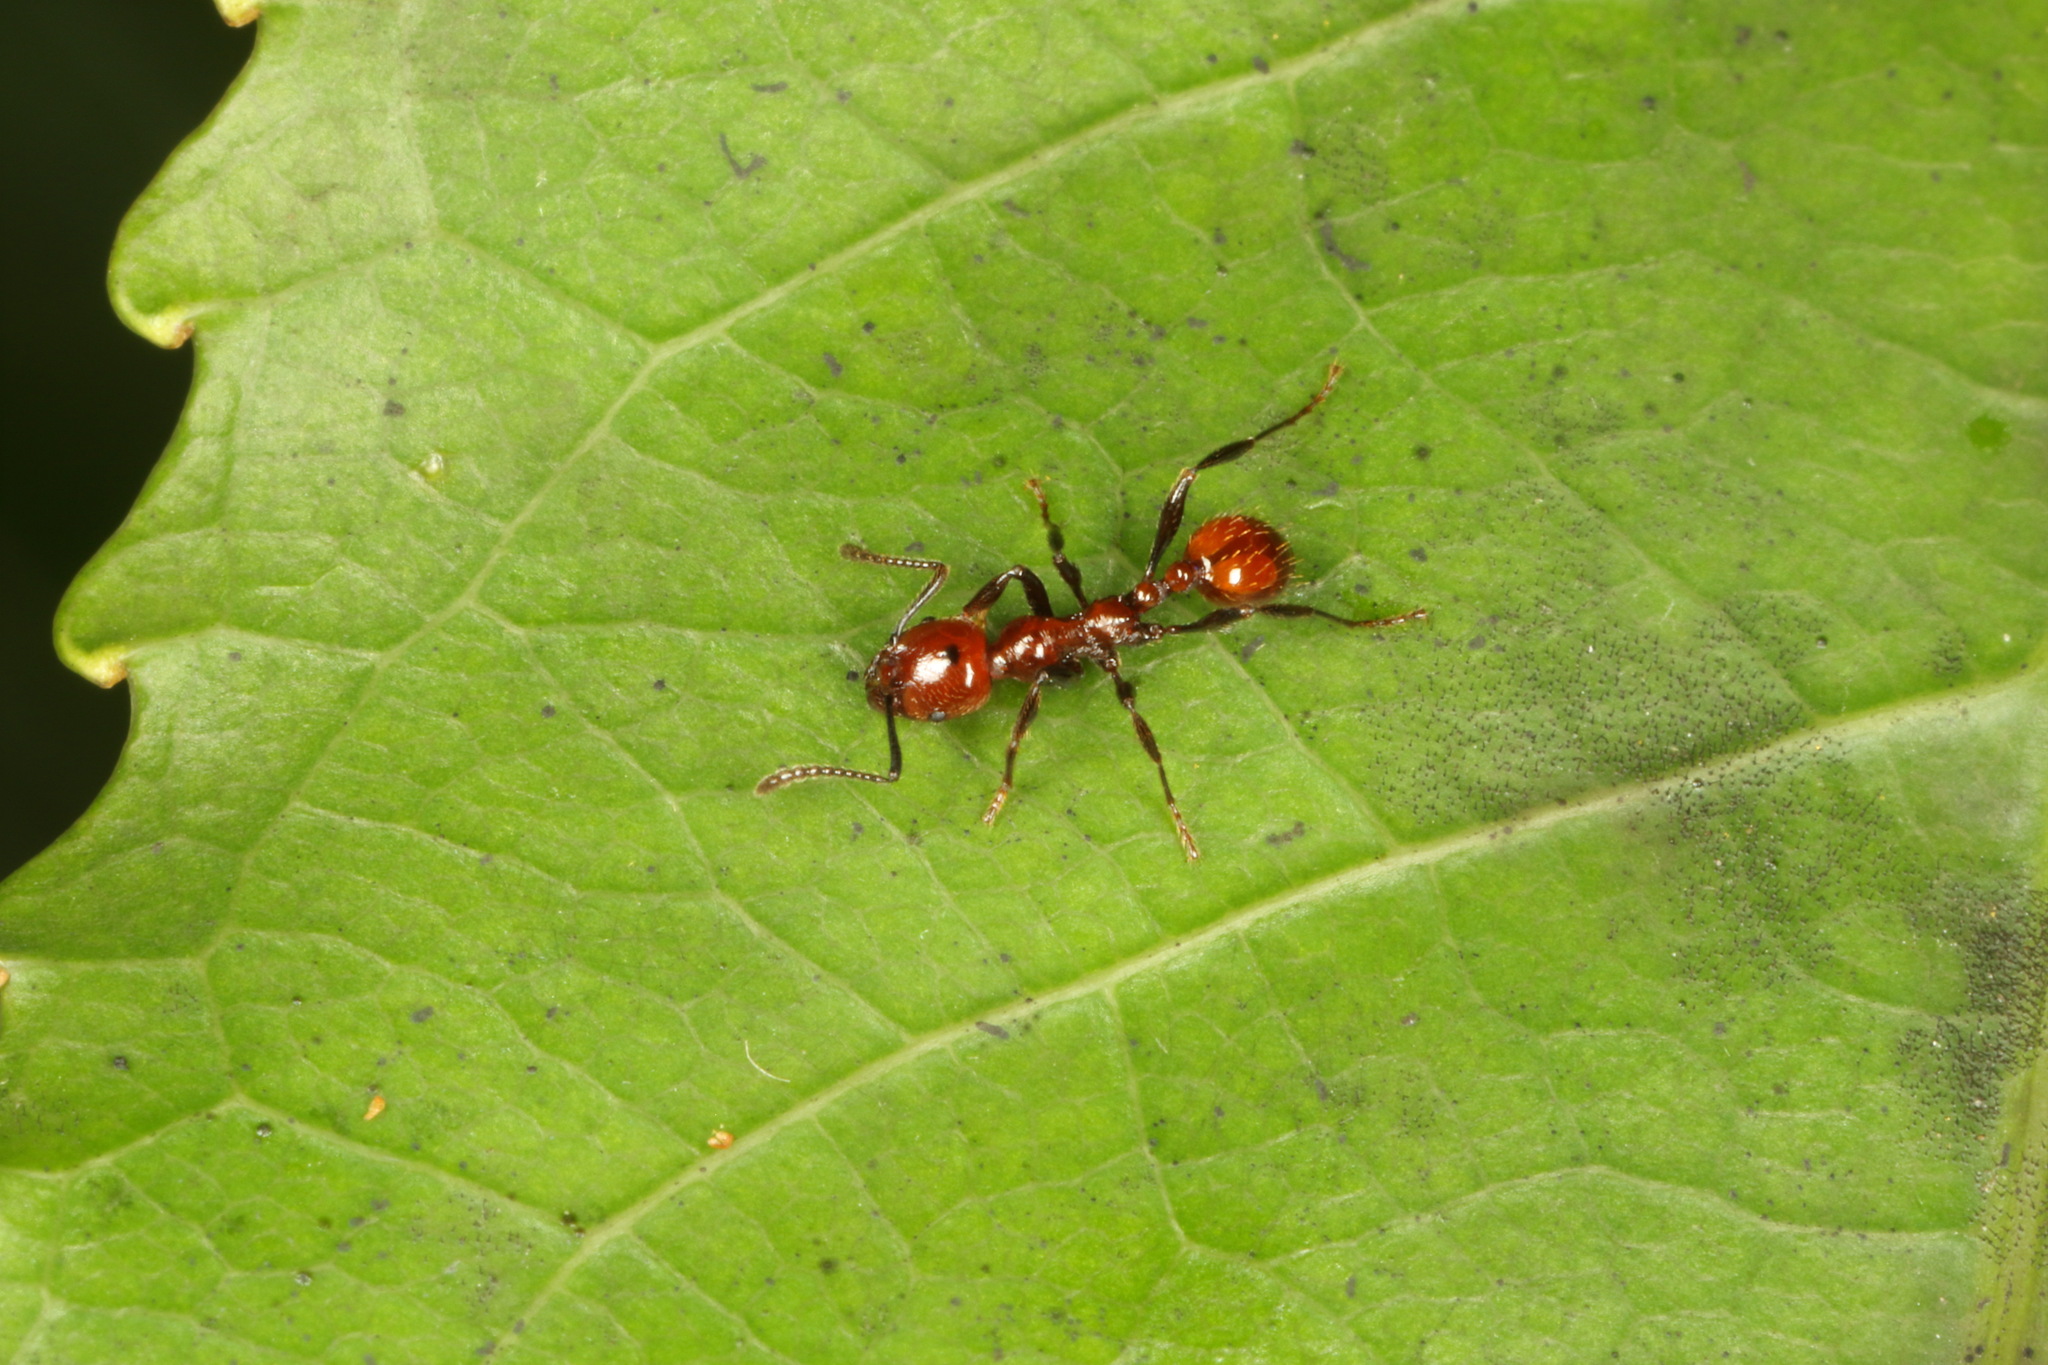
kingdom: Animalia
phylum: Arthropoda
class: Insecta
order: Hymenoptera
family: Formicidae
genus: Huberia
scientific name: Huberia striata
